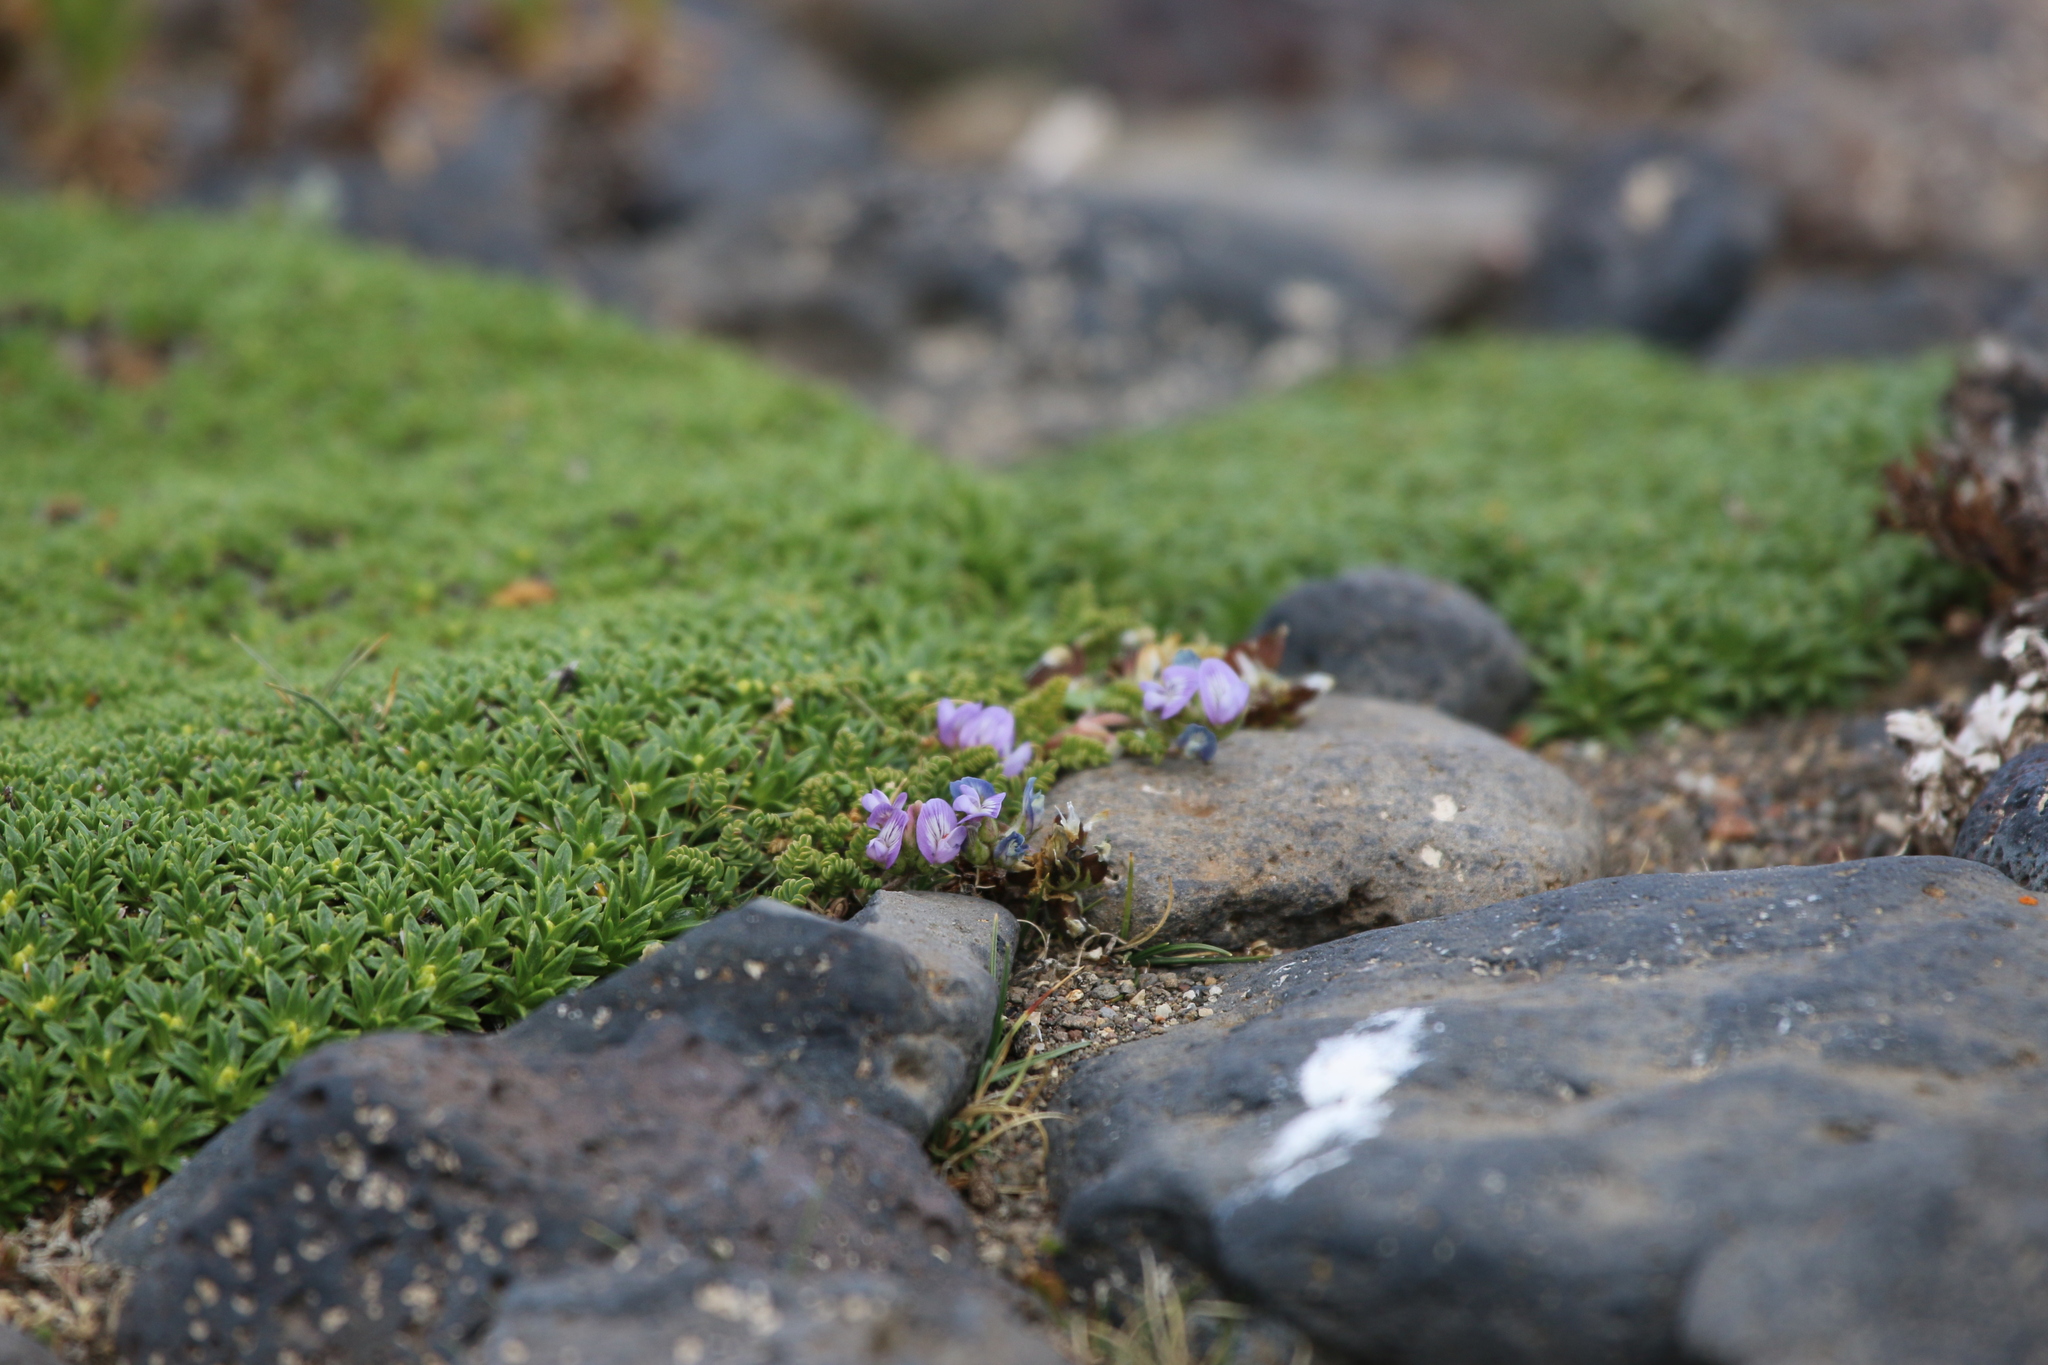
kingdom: Plantae
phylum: Tracheophyta
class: Magnoliopsida
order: Fabales
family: Fabaceae
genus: Astragalus
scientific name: Astragalus nivicola
